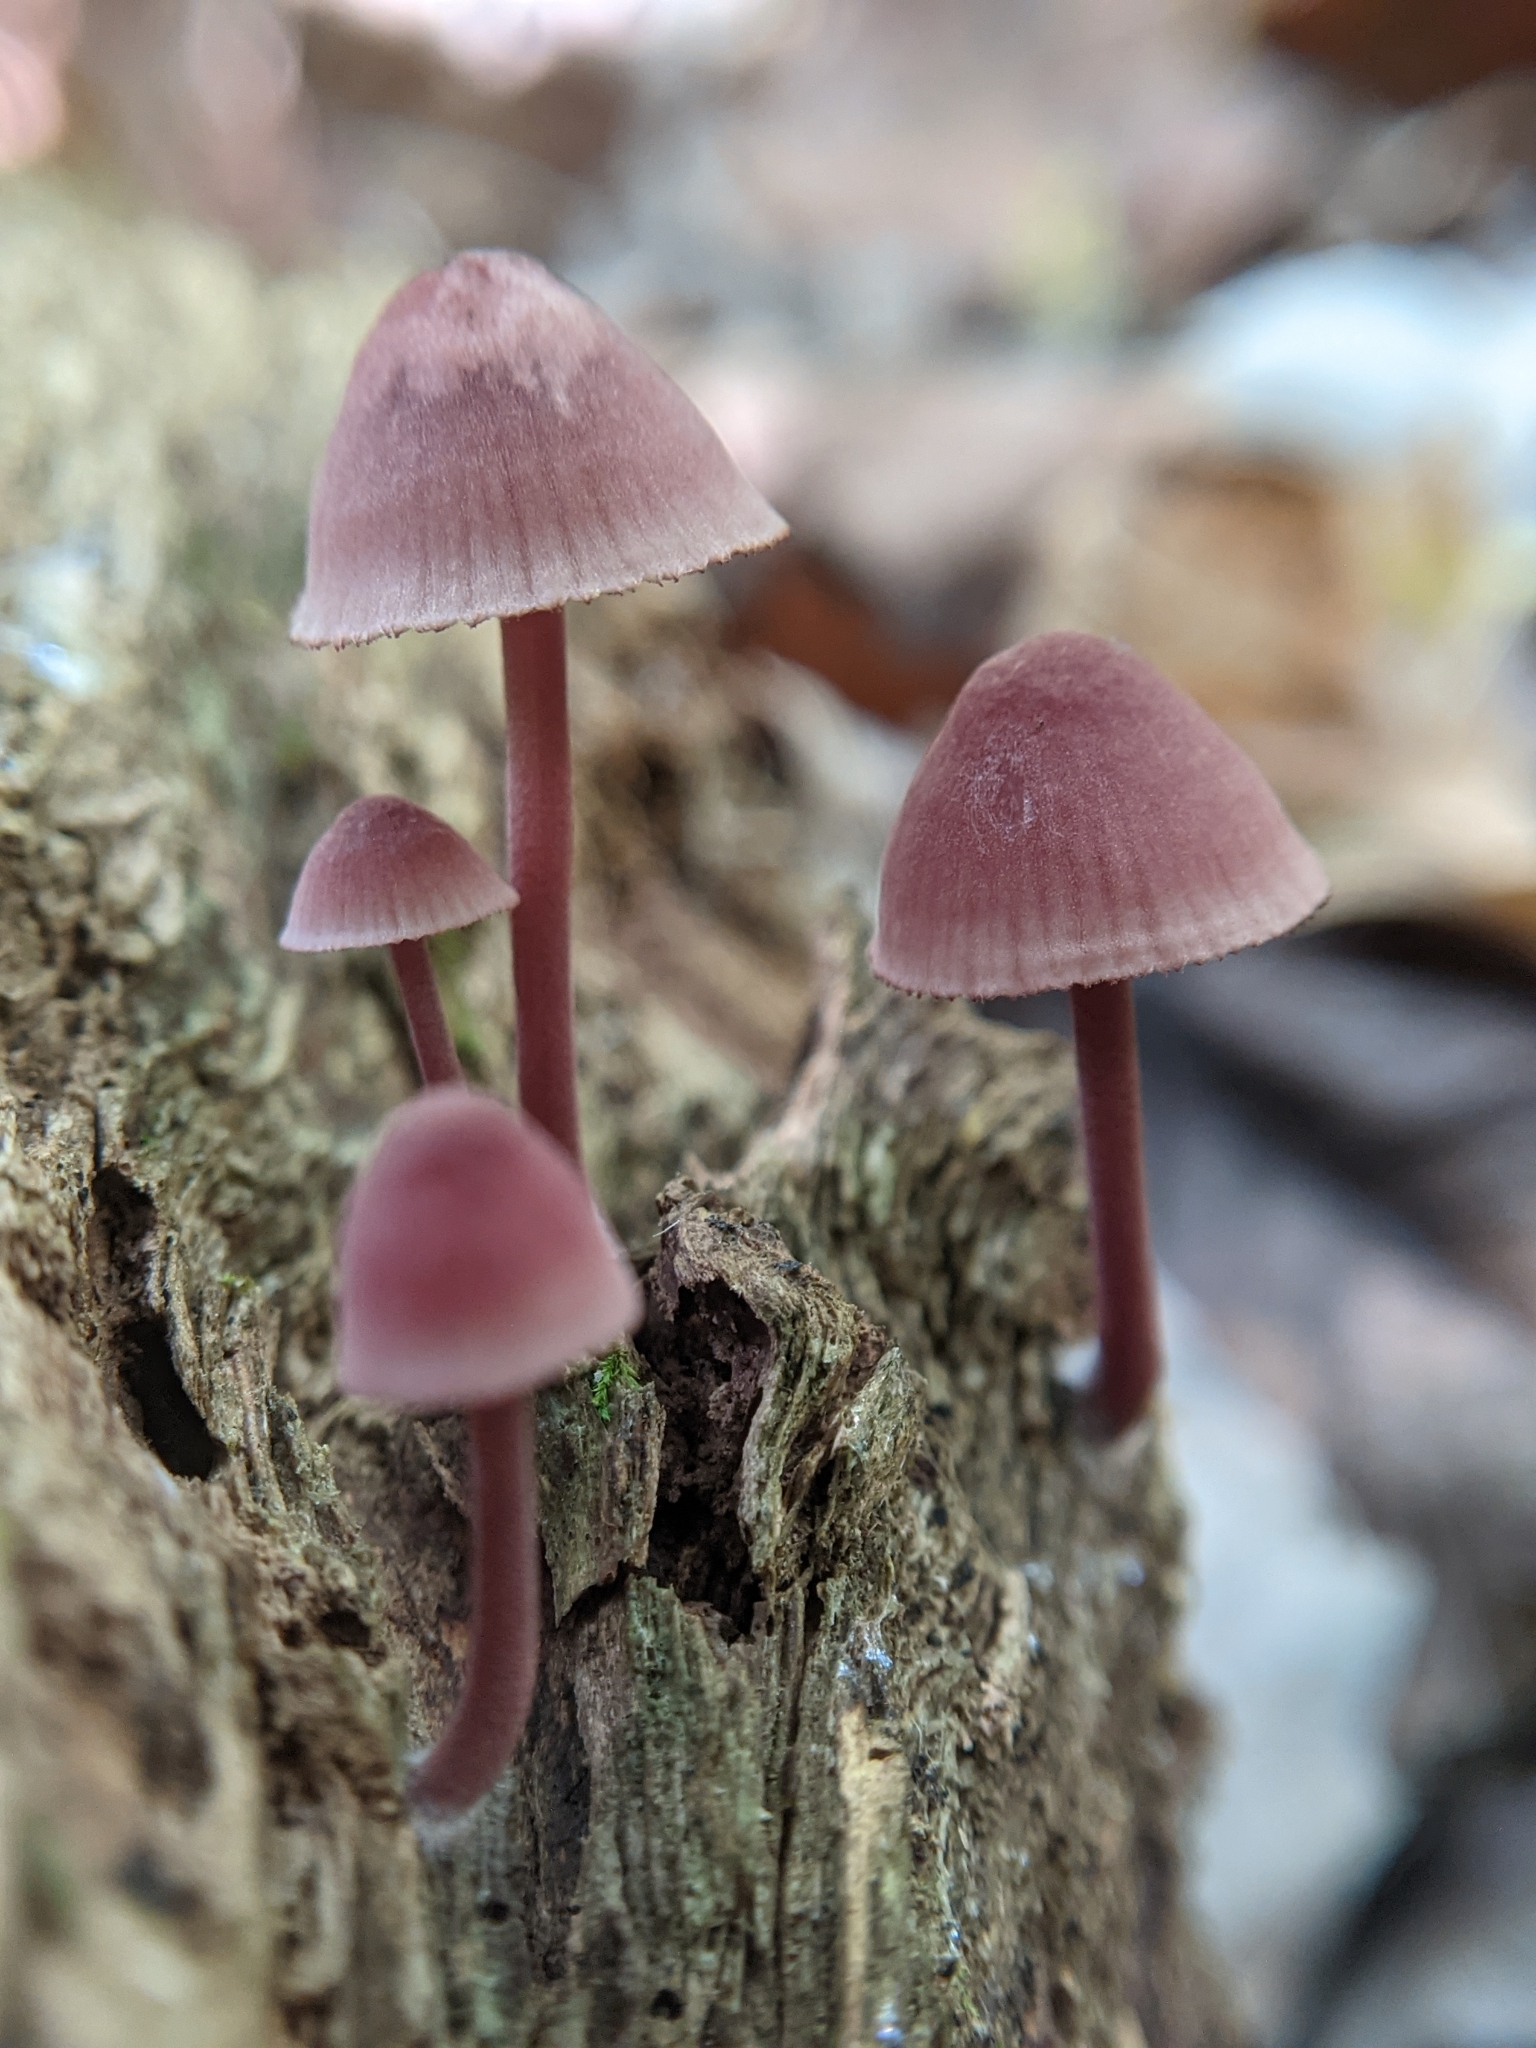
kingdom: Fungi
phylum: Basidiomycota
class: Agaricomycetes
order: Agaricales
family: Mycenaceae
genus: Mycena
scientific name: Mycena haematopus
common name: Burgundydrop bonnet
